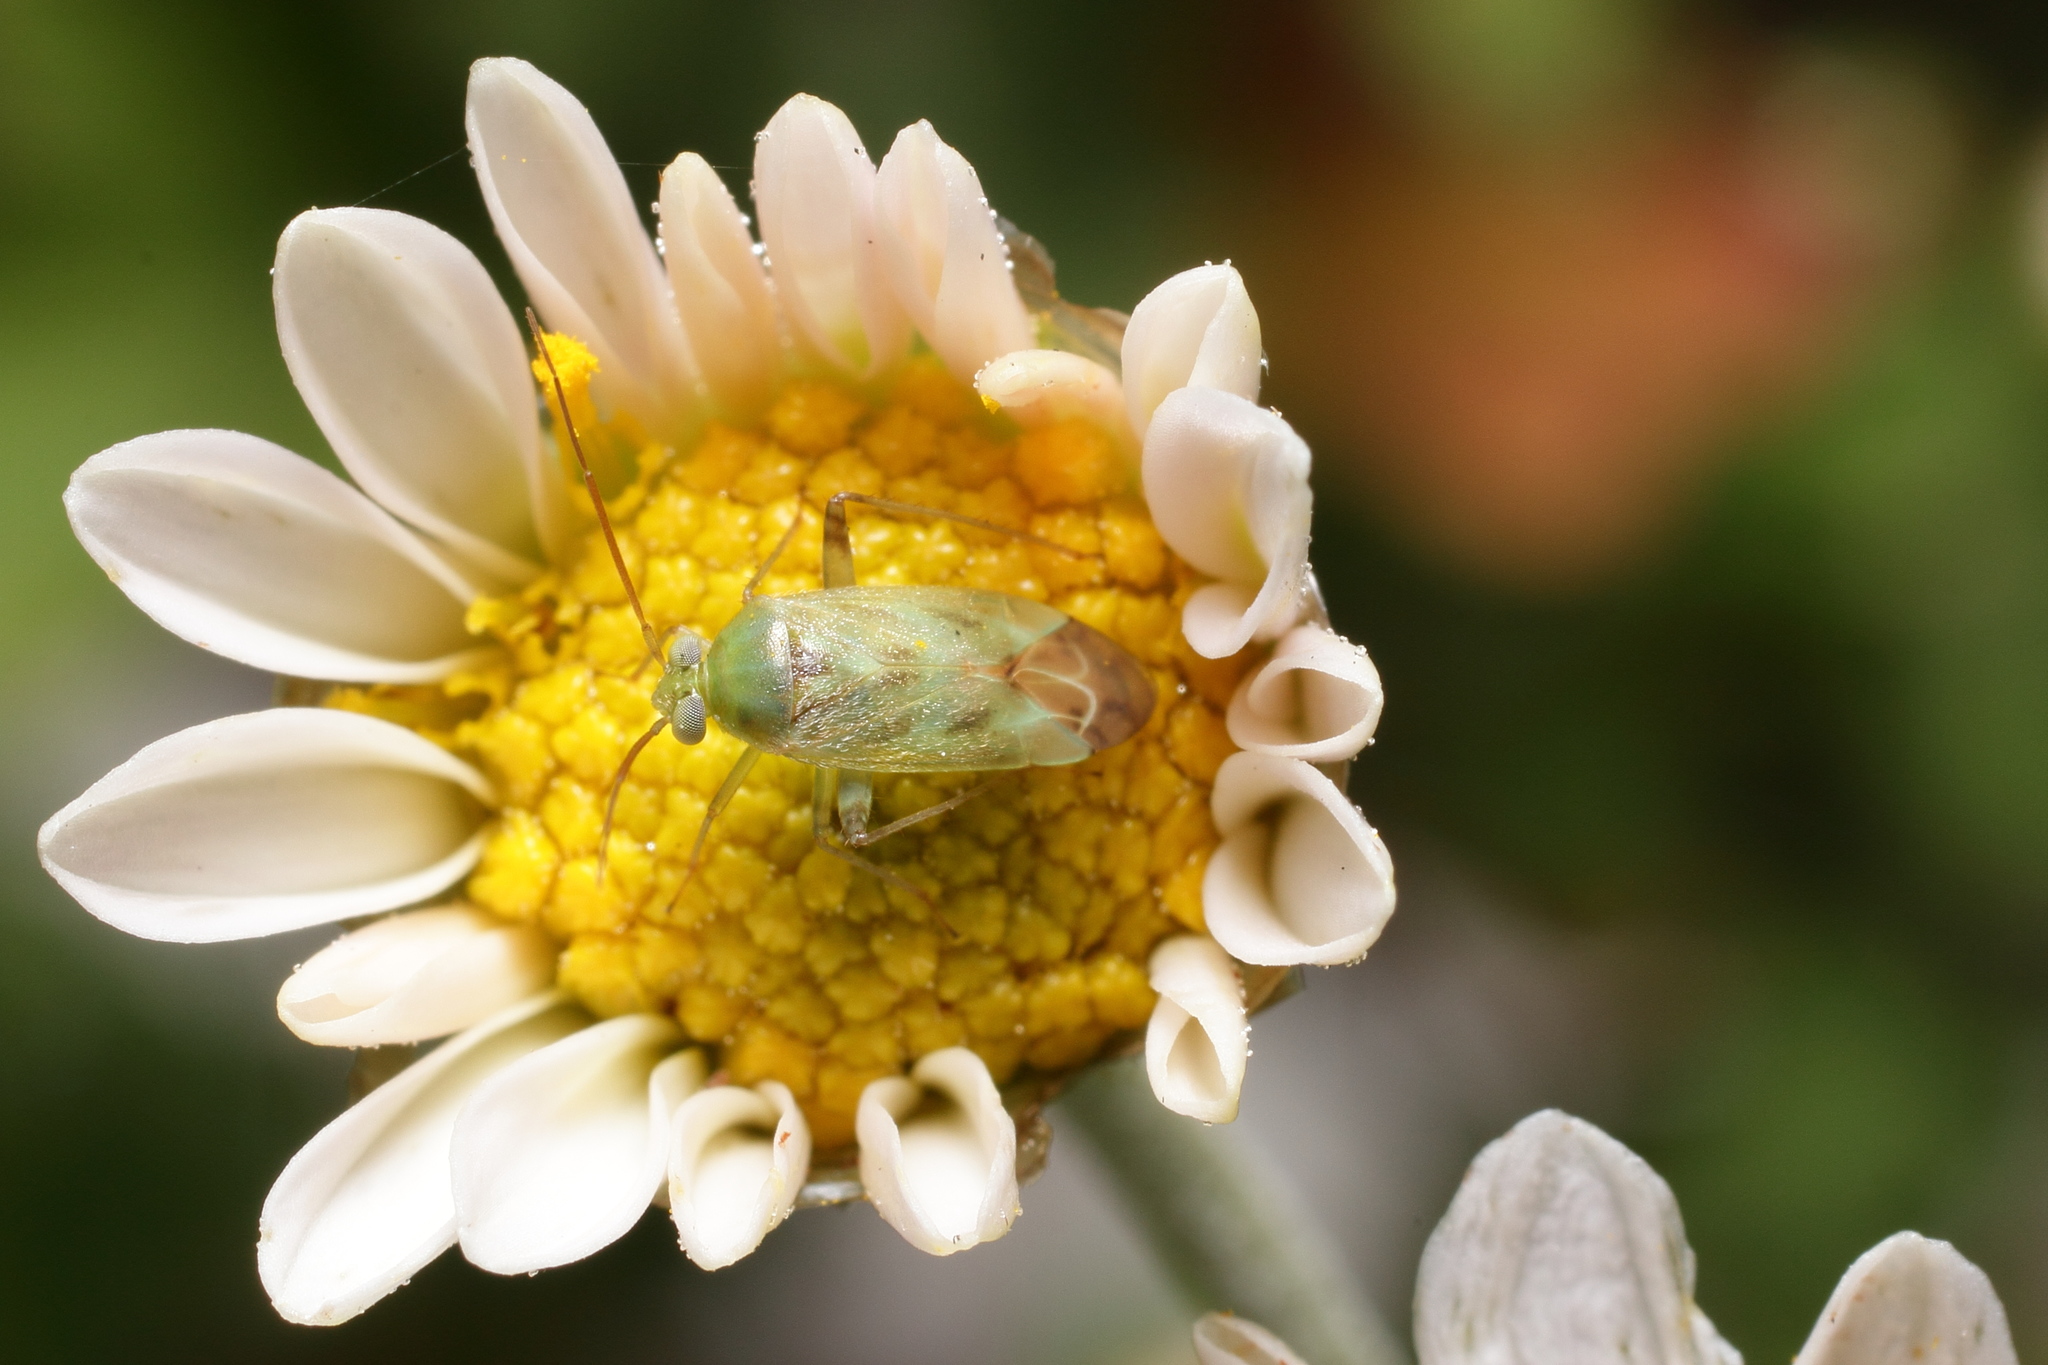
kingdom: Animalia
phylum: Arthropoda
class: Insecta
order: Hemiptera
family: Miridae
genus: Taylorilygus
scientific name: Taylorilygus apicalis
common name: Plant bug
